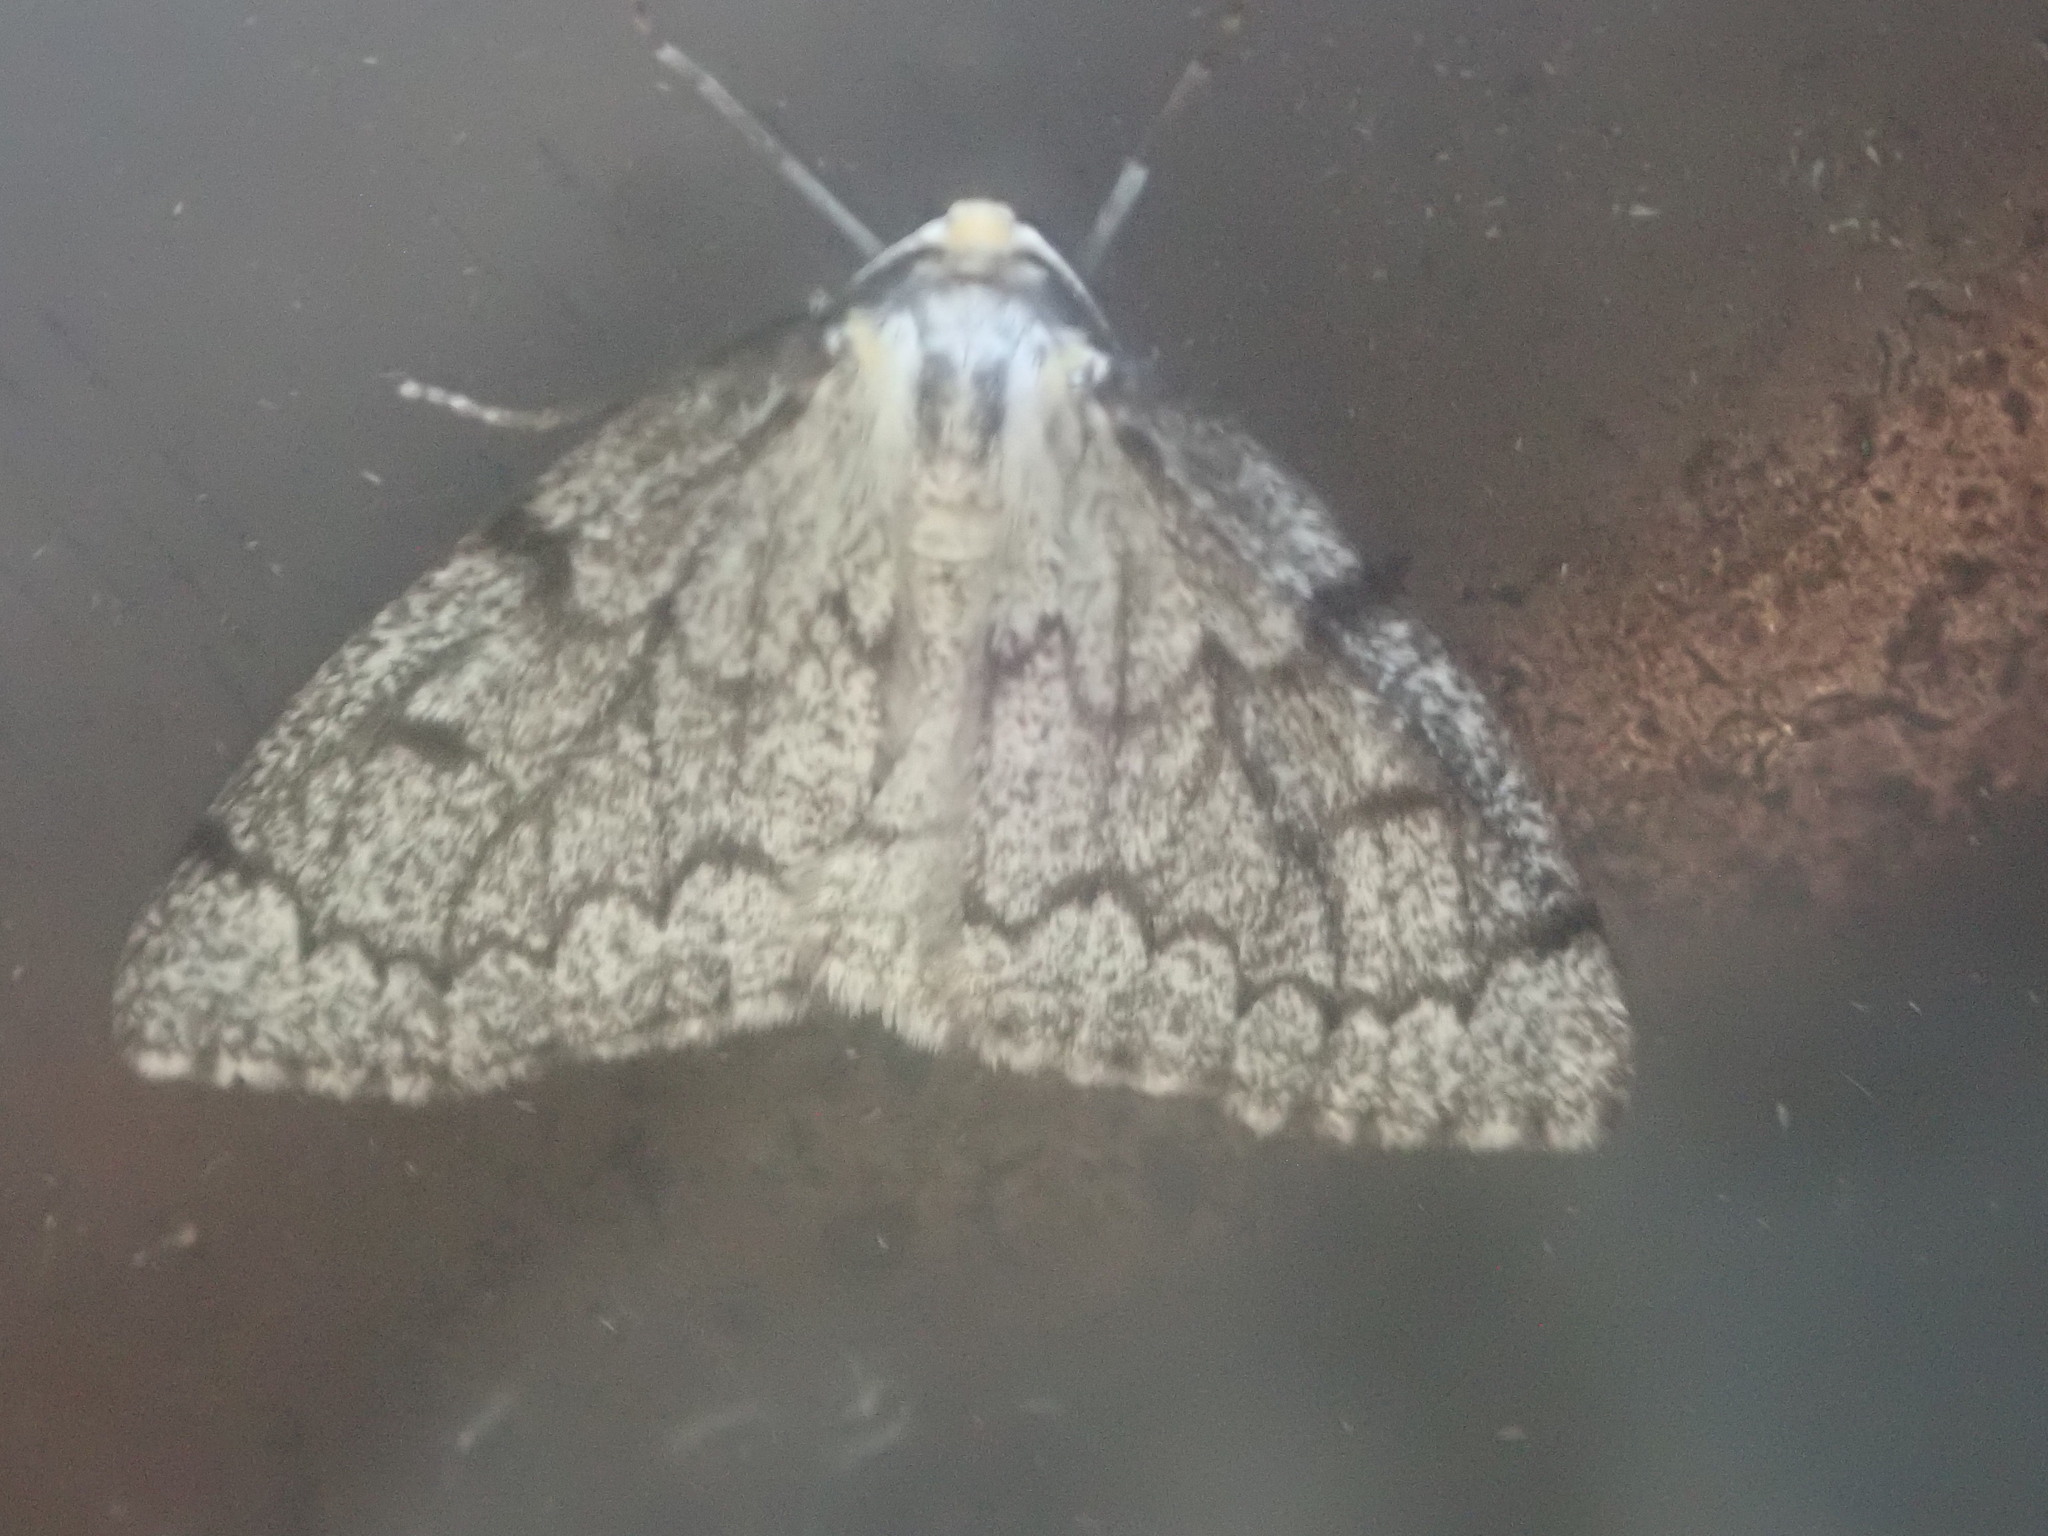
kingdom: Animalia
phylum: Arthropoda
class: Insecta
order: Lepidoptera
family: Geometridae
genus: Nepytia
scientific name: Nepytia canosaria
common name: False hemlock looper
